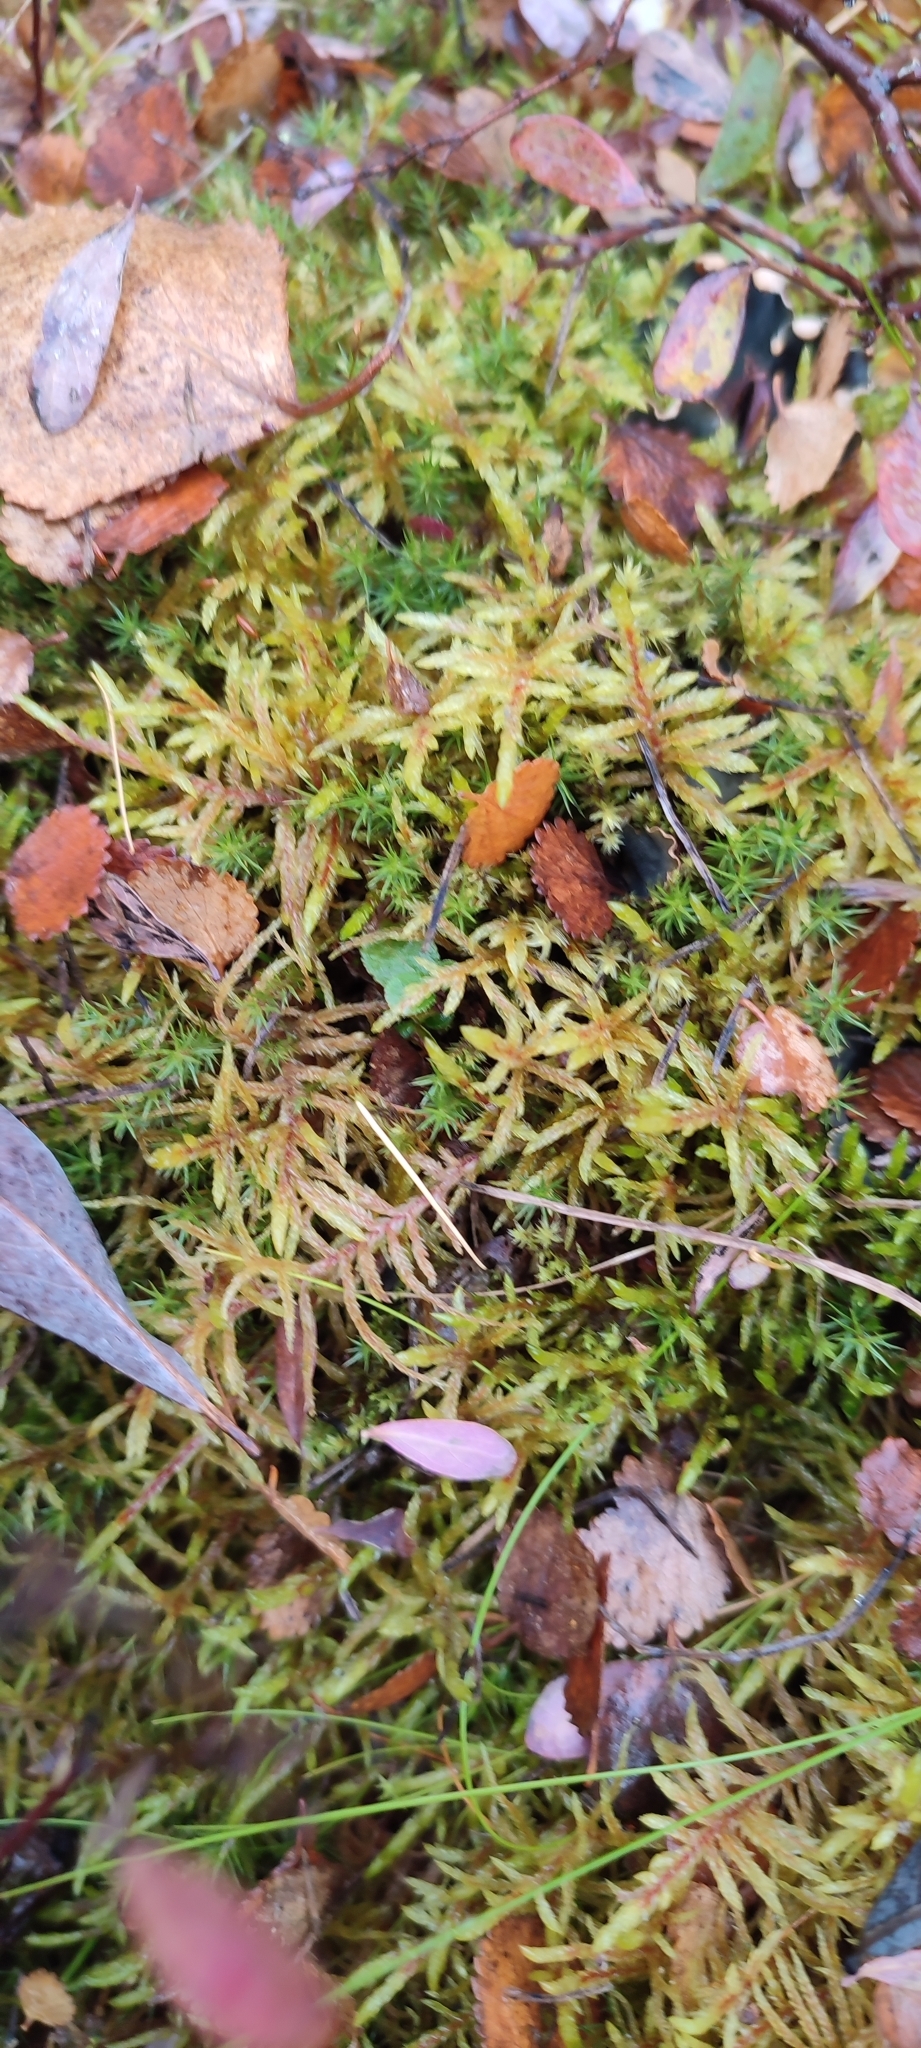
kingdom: Plantae
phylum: Bryophyta
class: Bryopsida
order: Hypnales
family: Hylocomiaceae
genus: Pleurozium
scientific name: Pleurozium schreberi
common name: Red-stemmed feather moss
